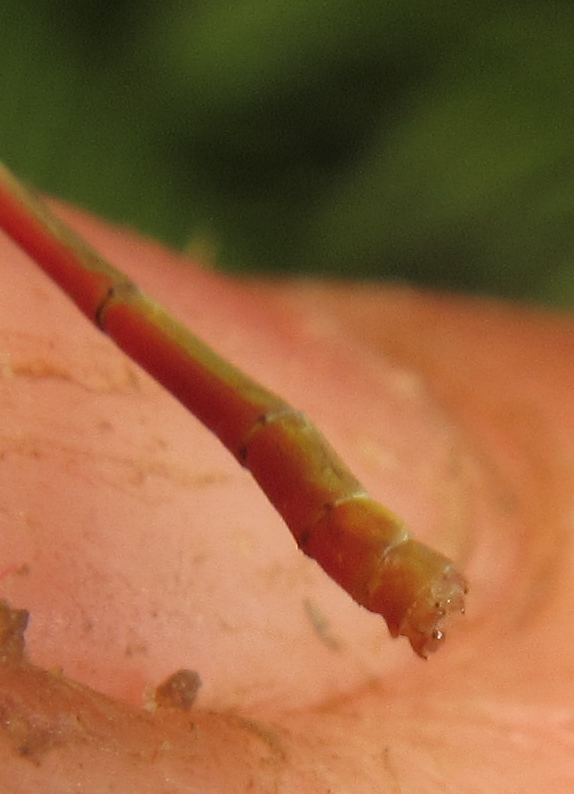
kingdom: Animalia
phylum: Arthropoda
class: Insecta
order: Odonata
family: Coenagrionidae
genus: Agriocnemis
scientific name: Agriocnemis ruberrima
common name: Orange wisp
